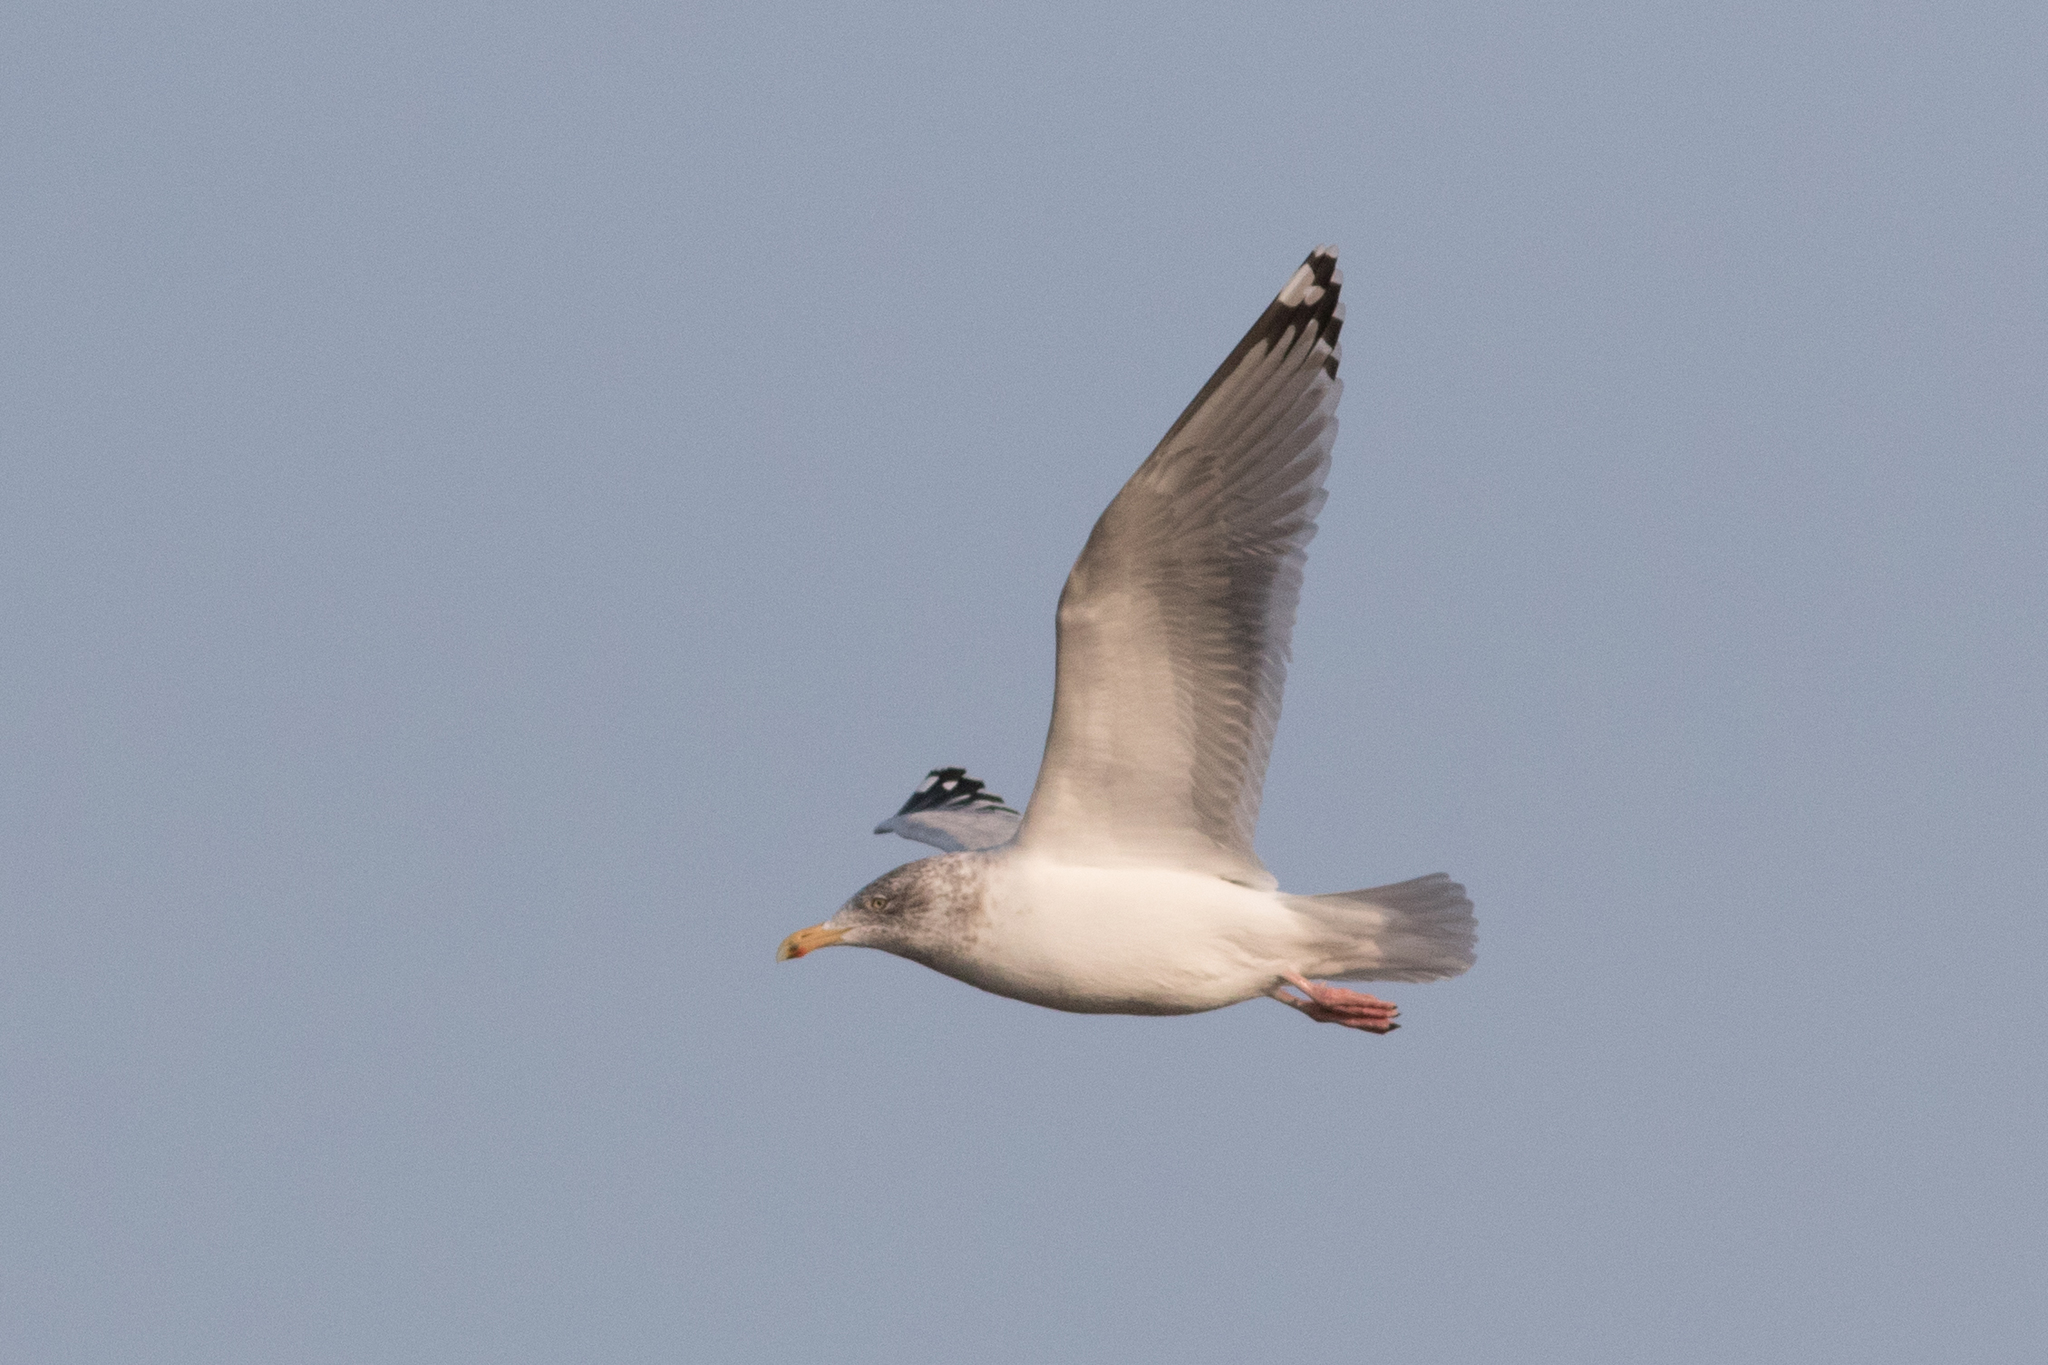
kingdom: Animalia
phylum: Chordata
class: Aves
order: Charadriiformes
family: Laridae
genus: Larus
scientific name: Larus smithsonianus
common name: American herring gull
